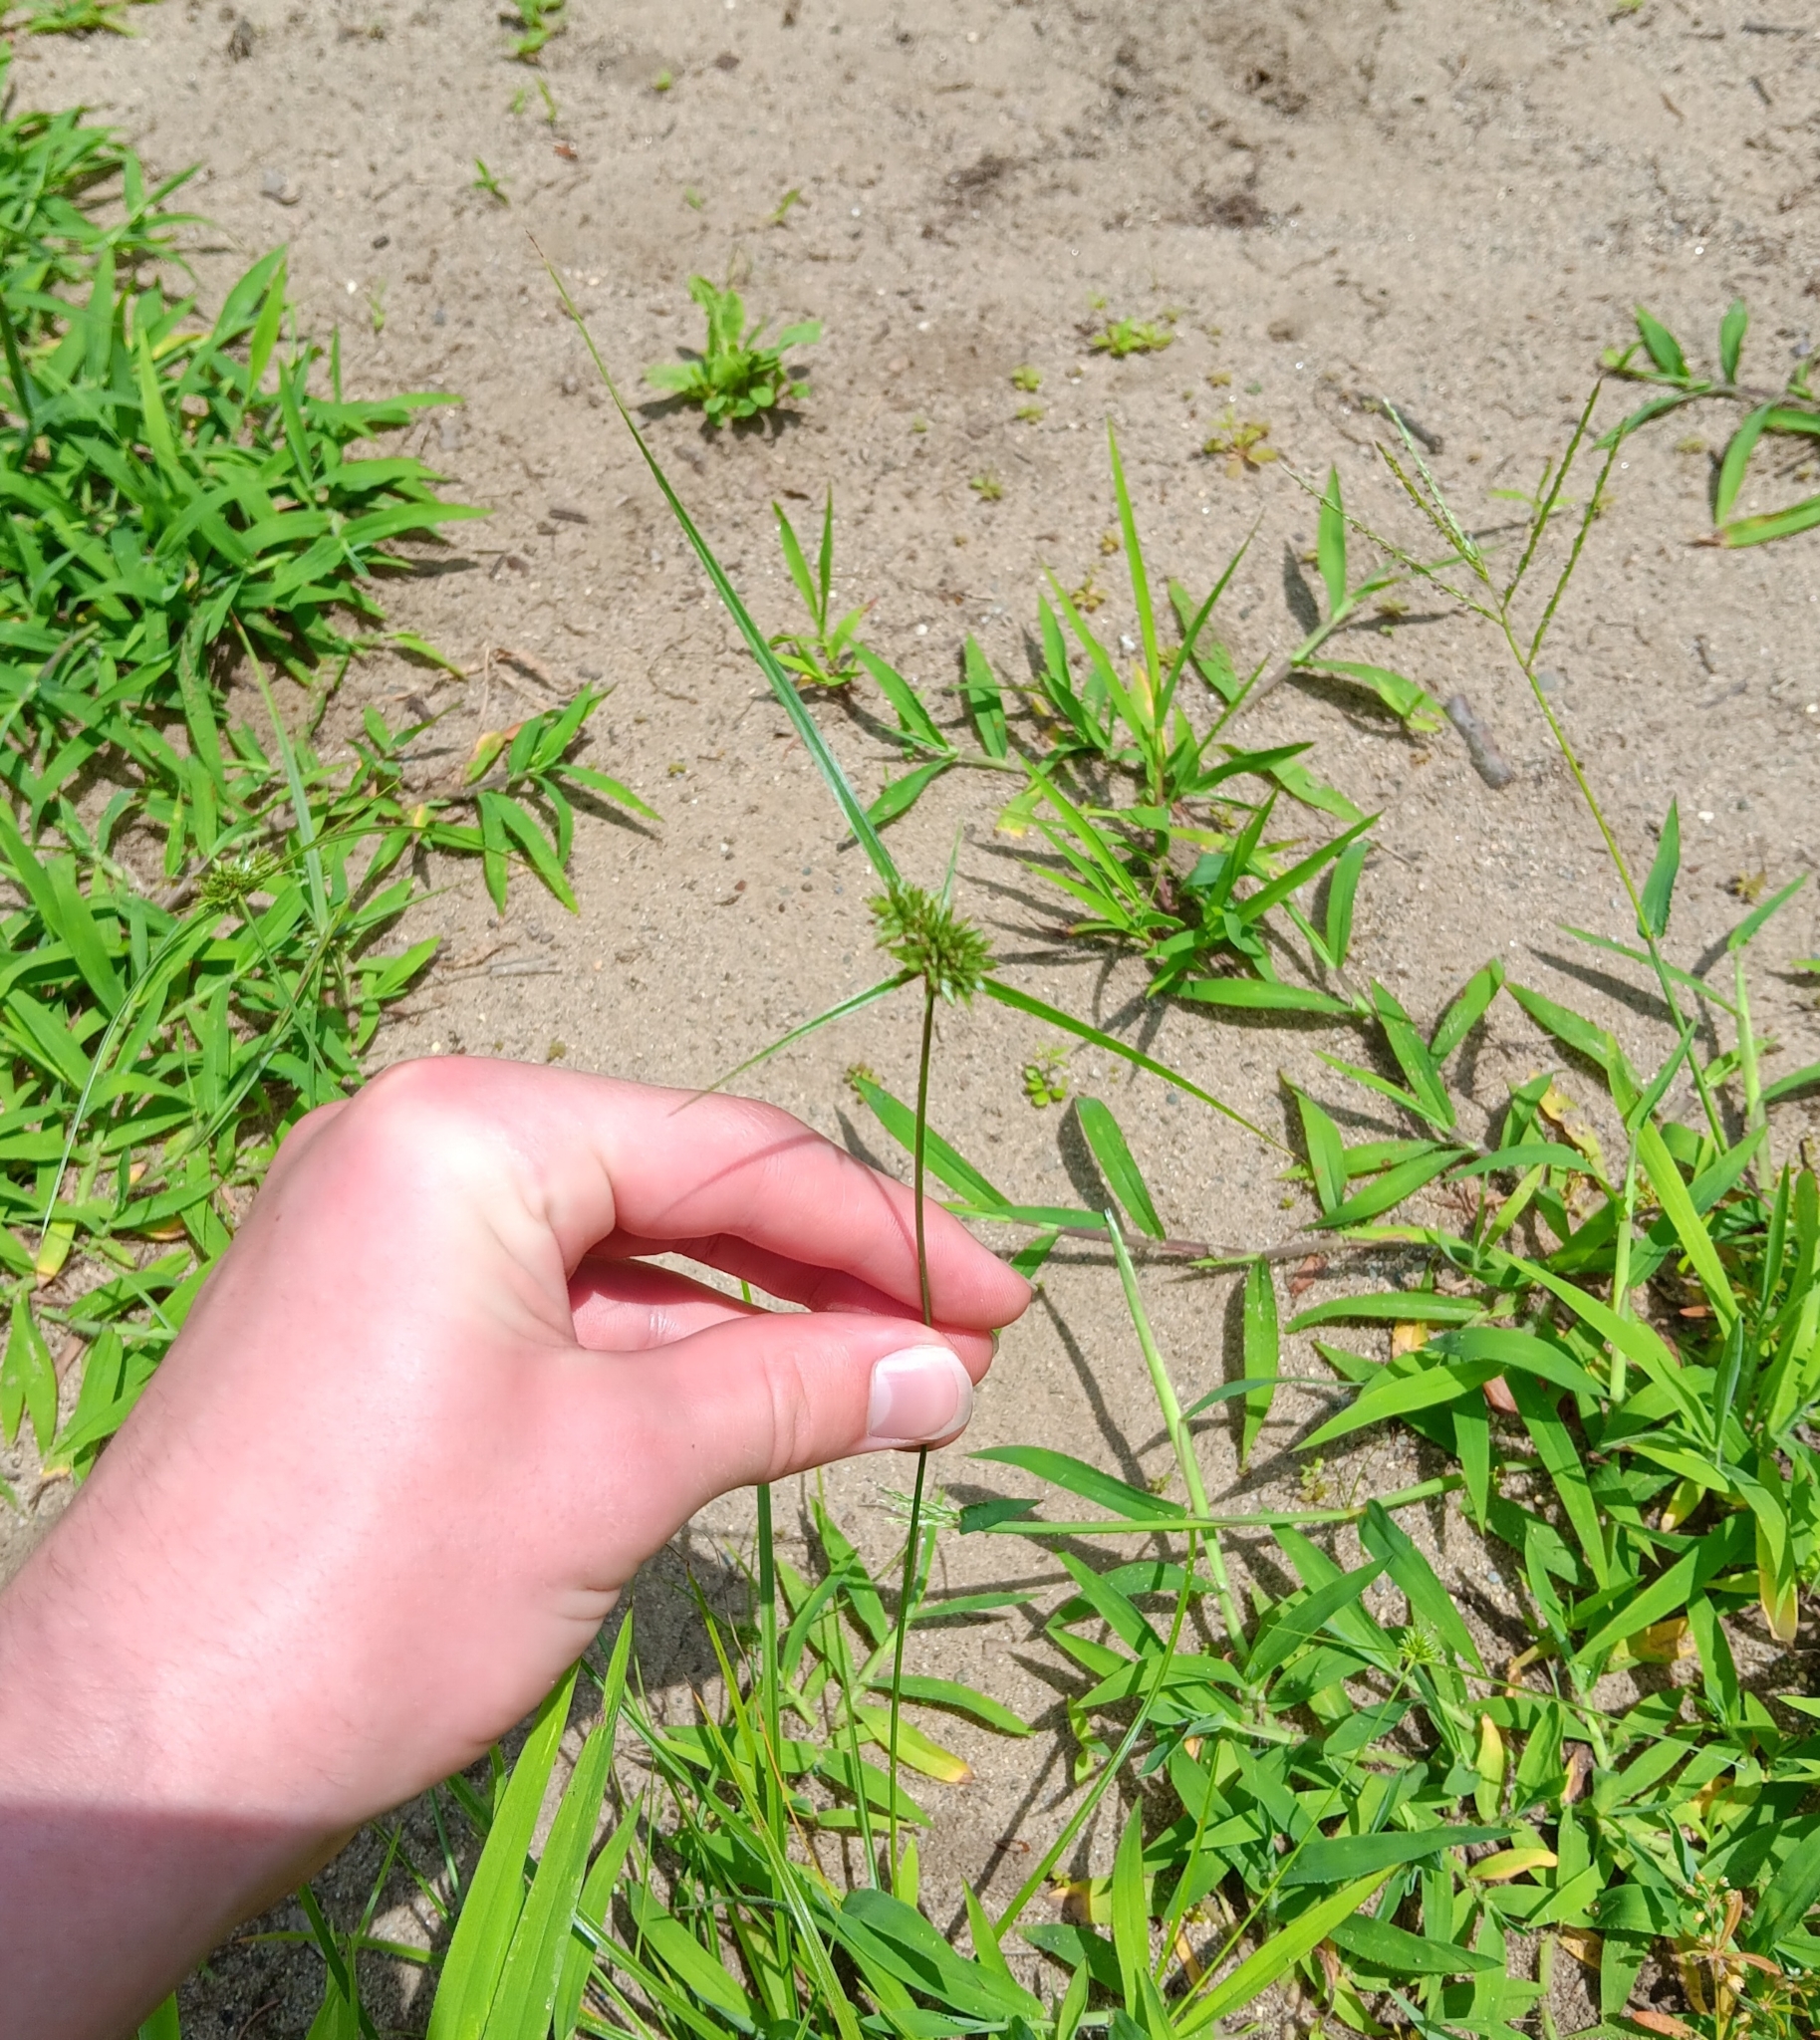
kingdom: Plantae
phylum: Tracheophyta
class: Liliopsida
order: Poales
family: Cyperaceae
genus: Cyperus
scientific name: Cyperus lupulinus
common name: Great plains flatsedge
